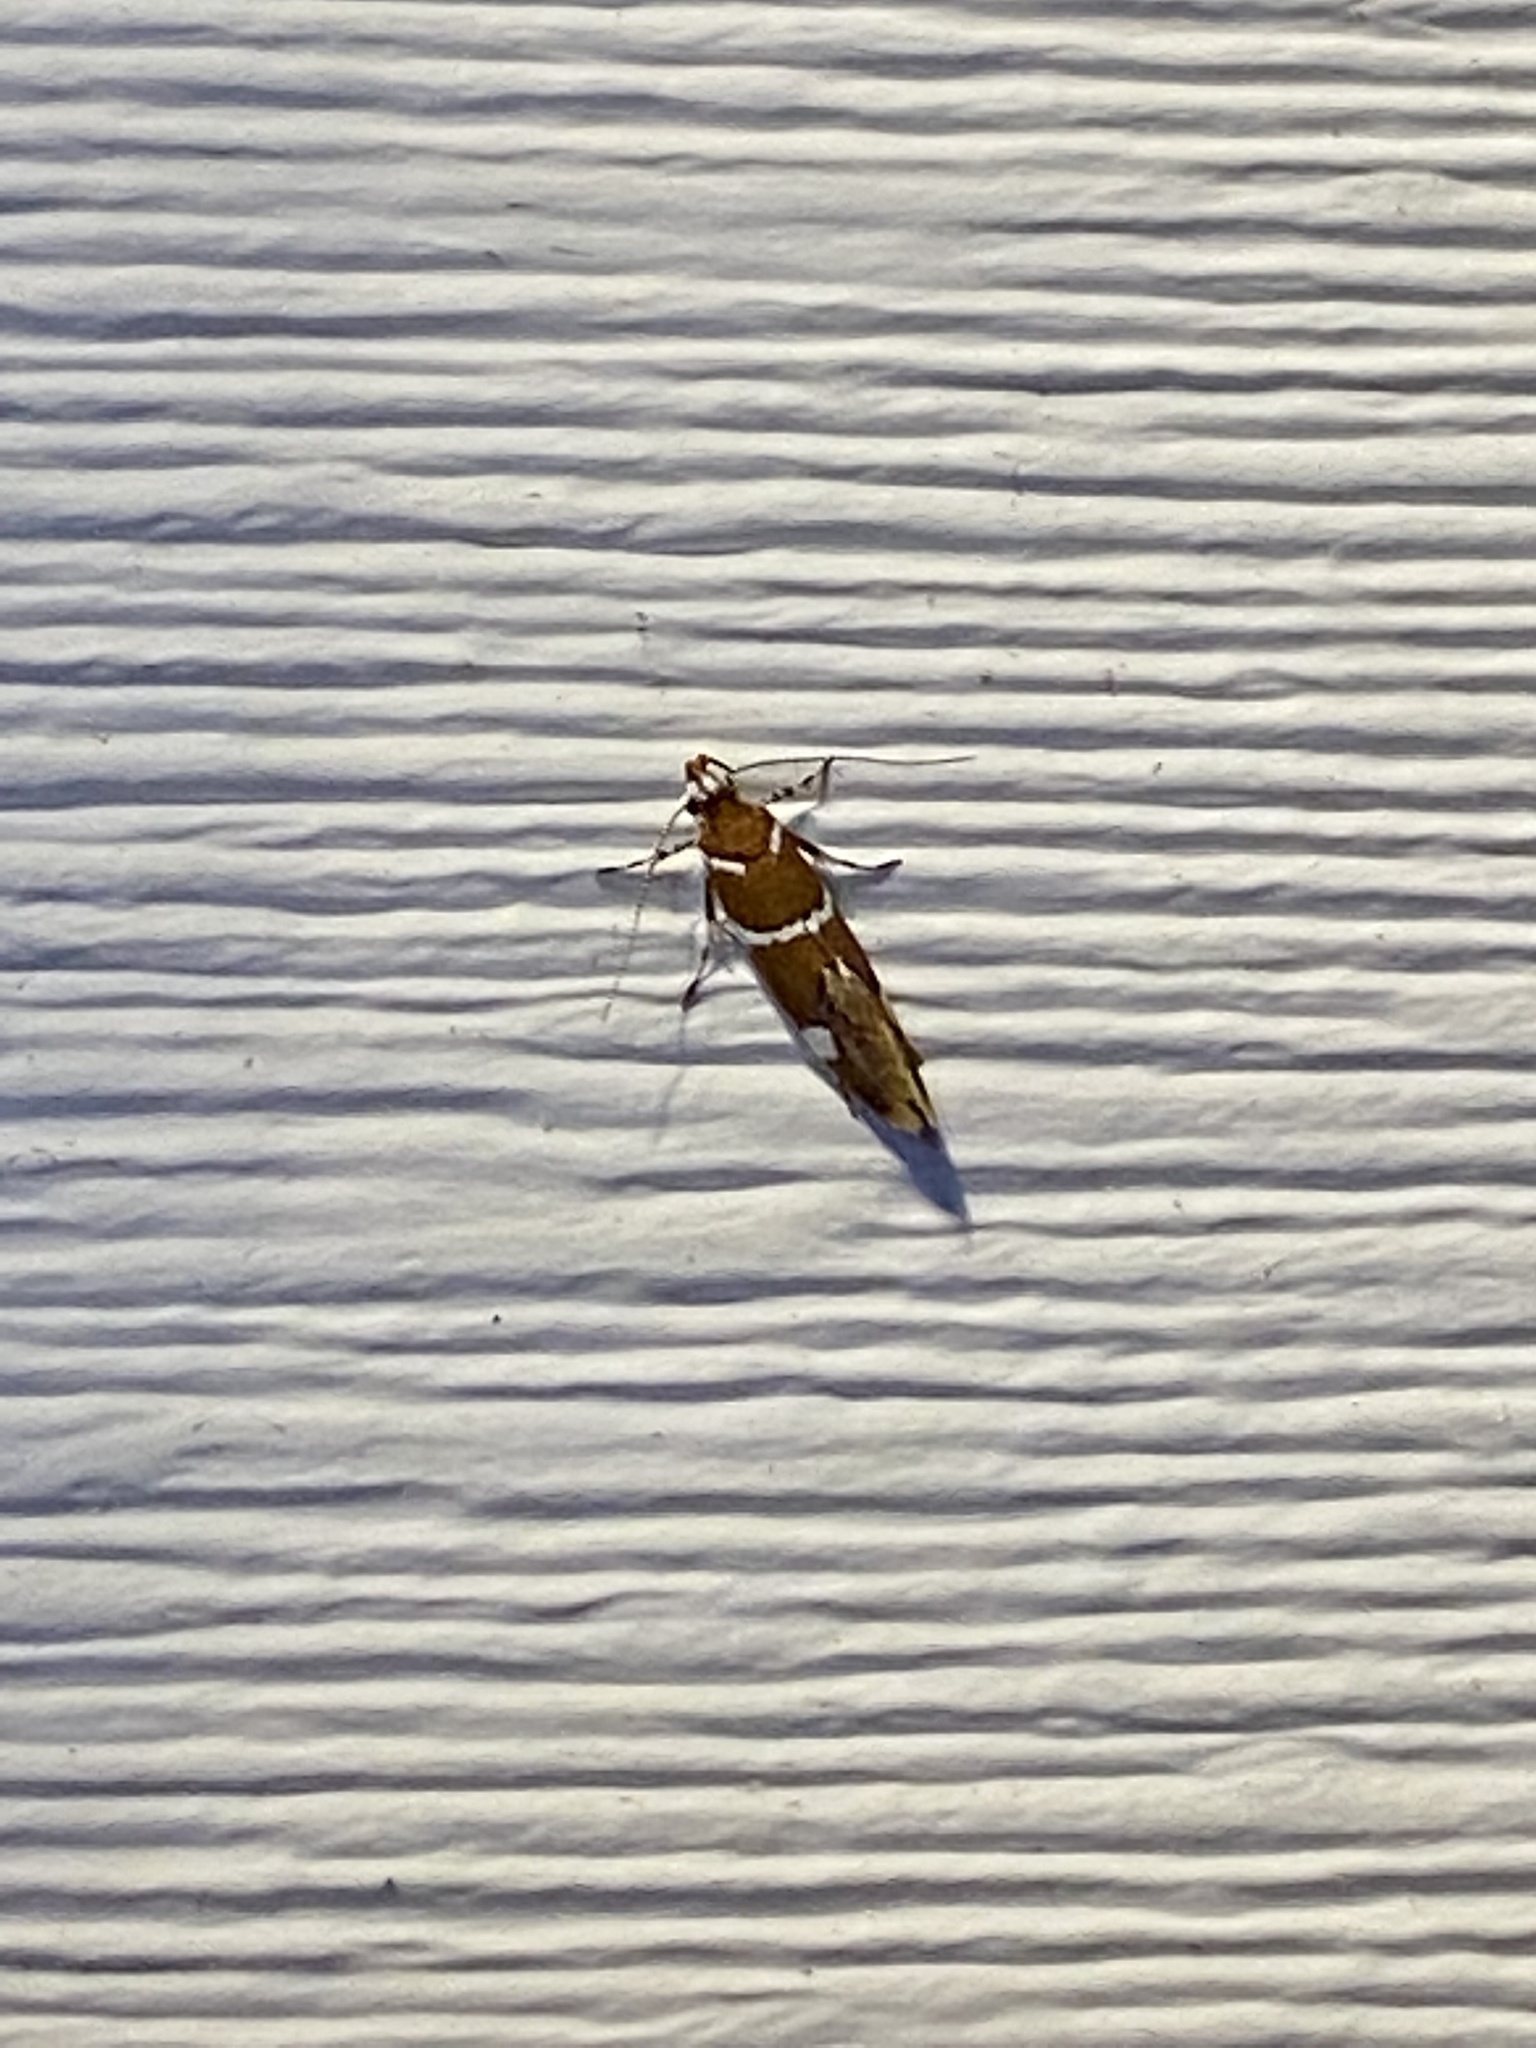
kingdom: Animalia
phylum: Arthropoda
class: Insecta
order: Lepidoptera
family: Oecophoridae
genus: Promalactis
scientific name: Promalactis suzukiella
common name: Moth
